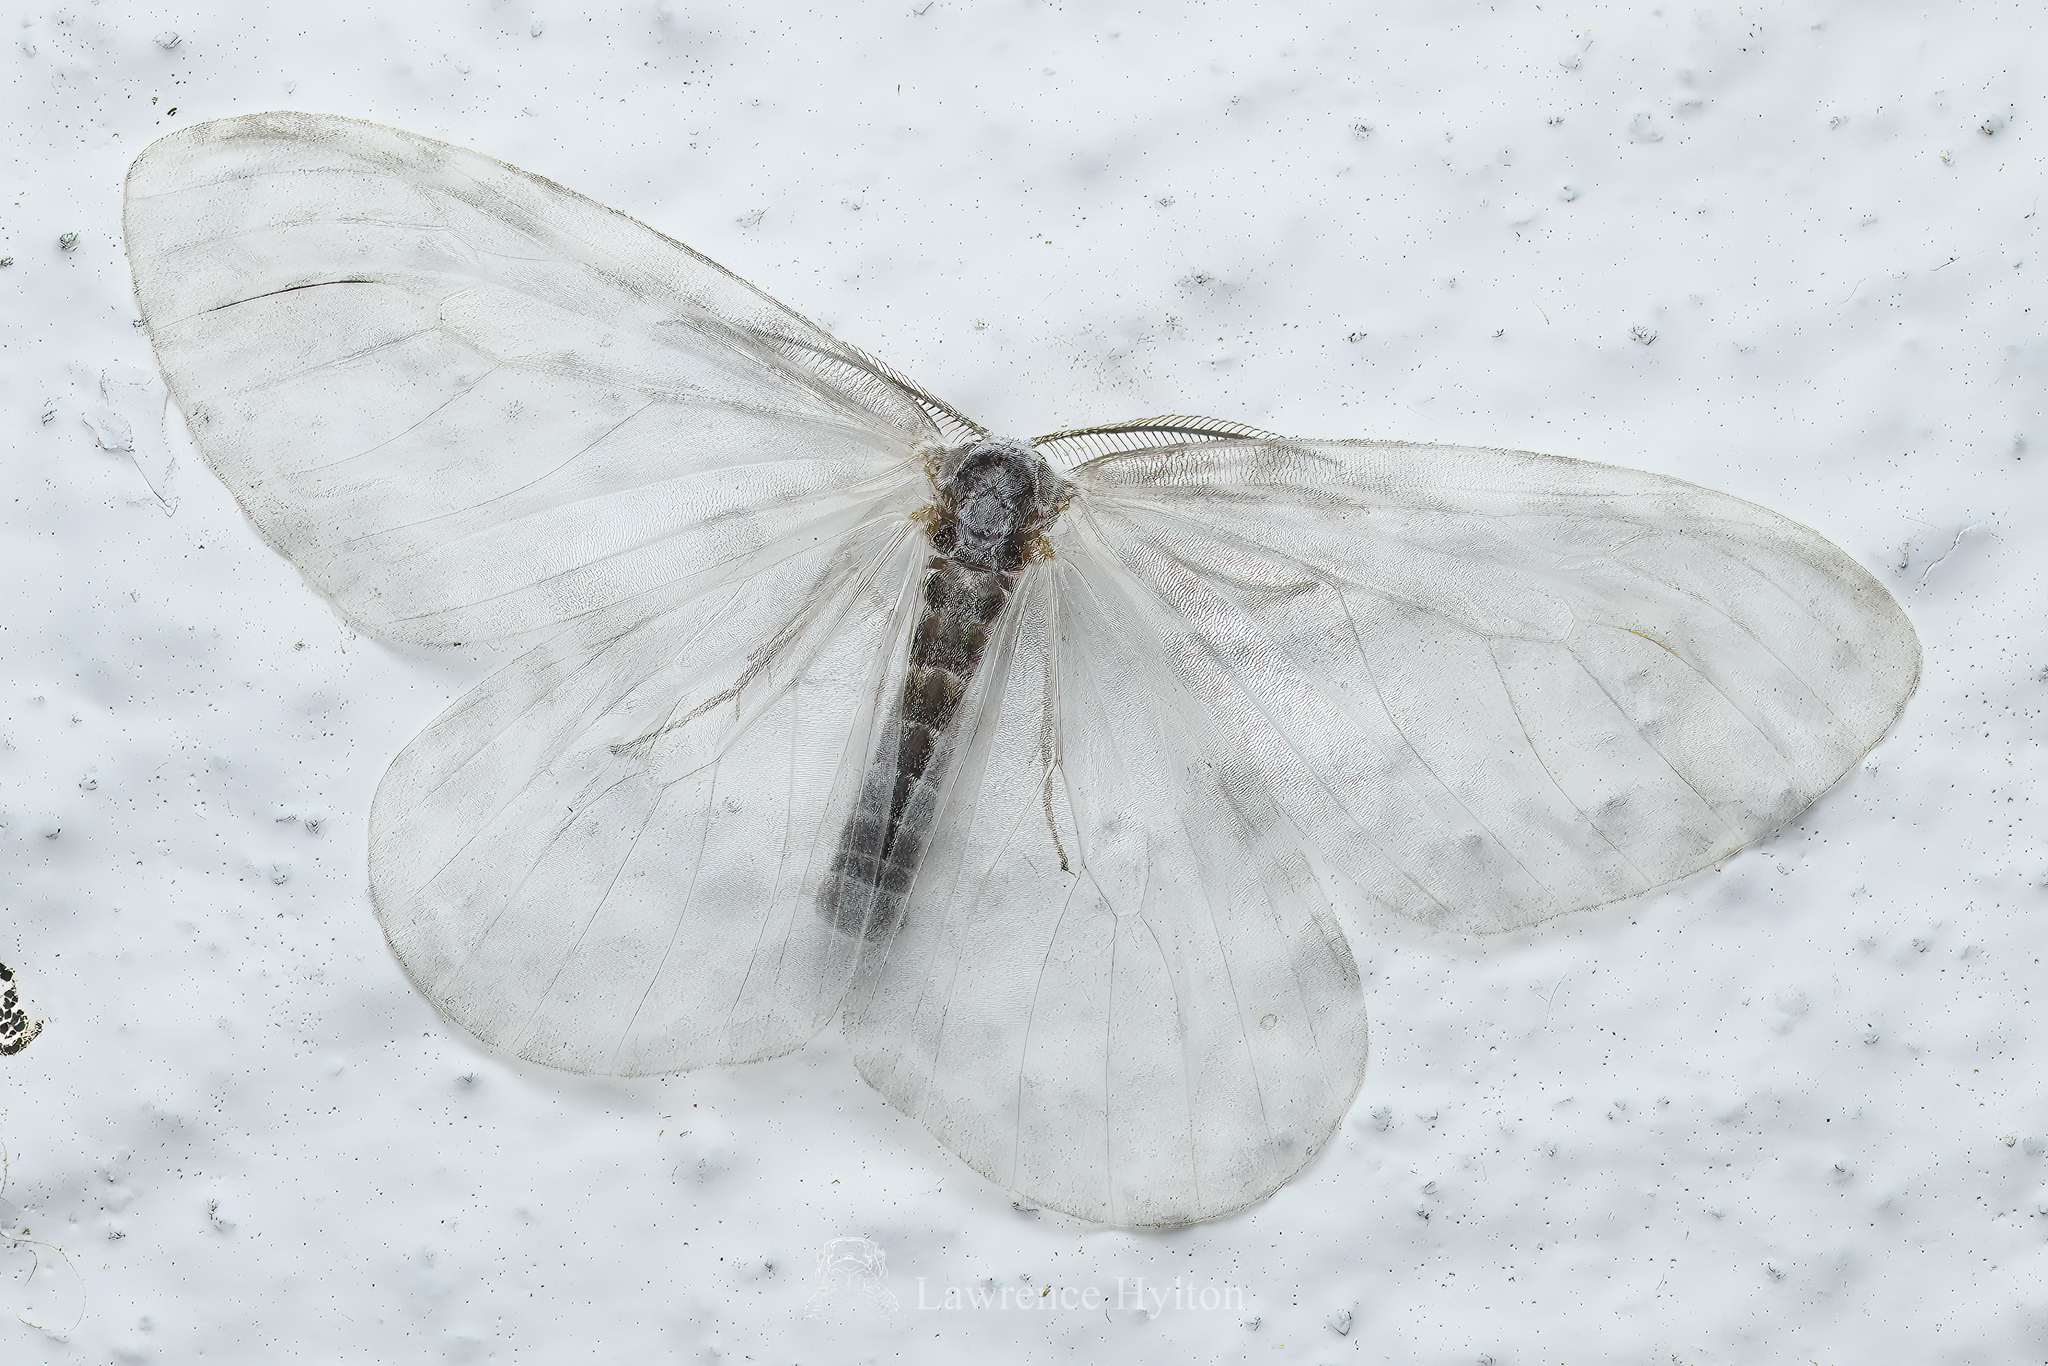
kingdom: Animalia
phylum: Arthropoda
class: Insecta
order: Lepidoptera
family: Drepanidae
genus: Deroca
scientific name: Deroca hyalina
